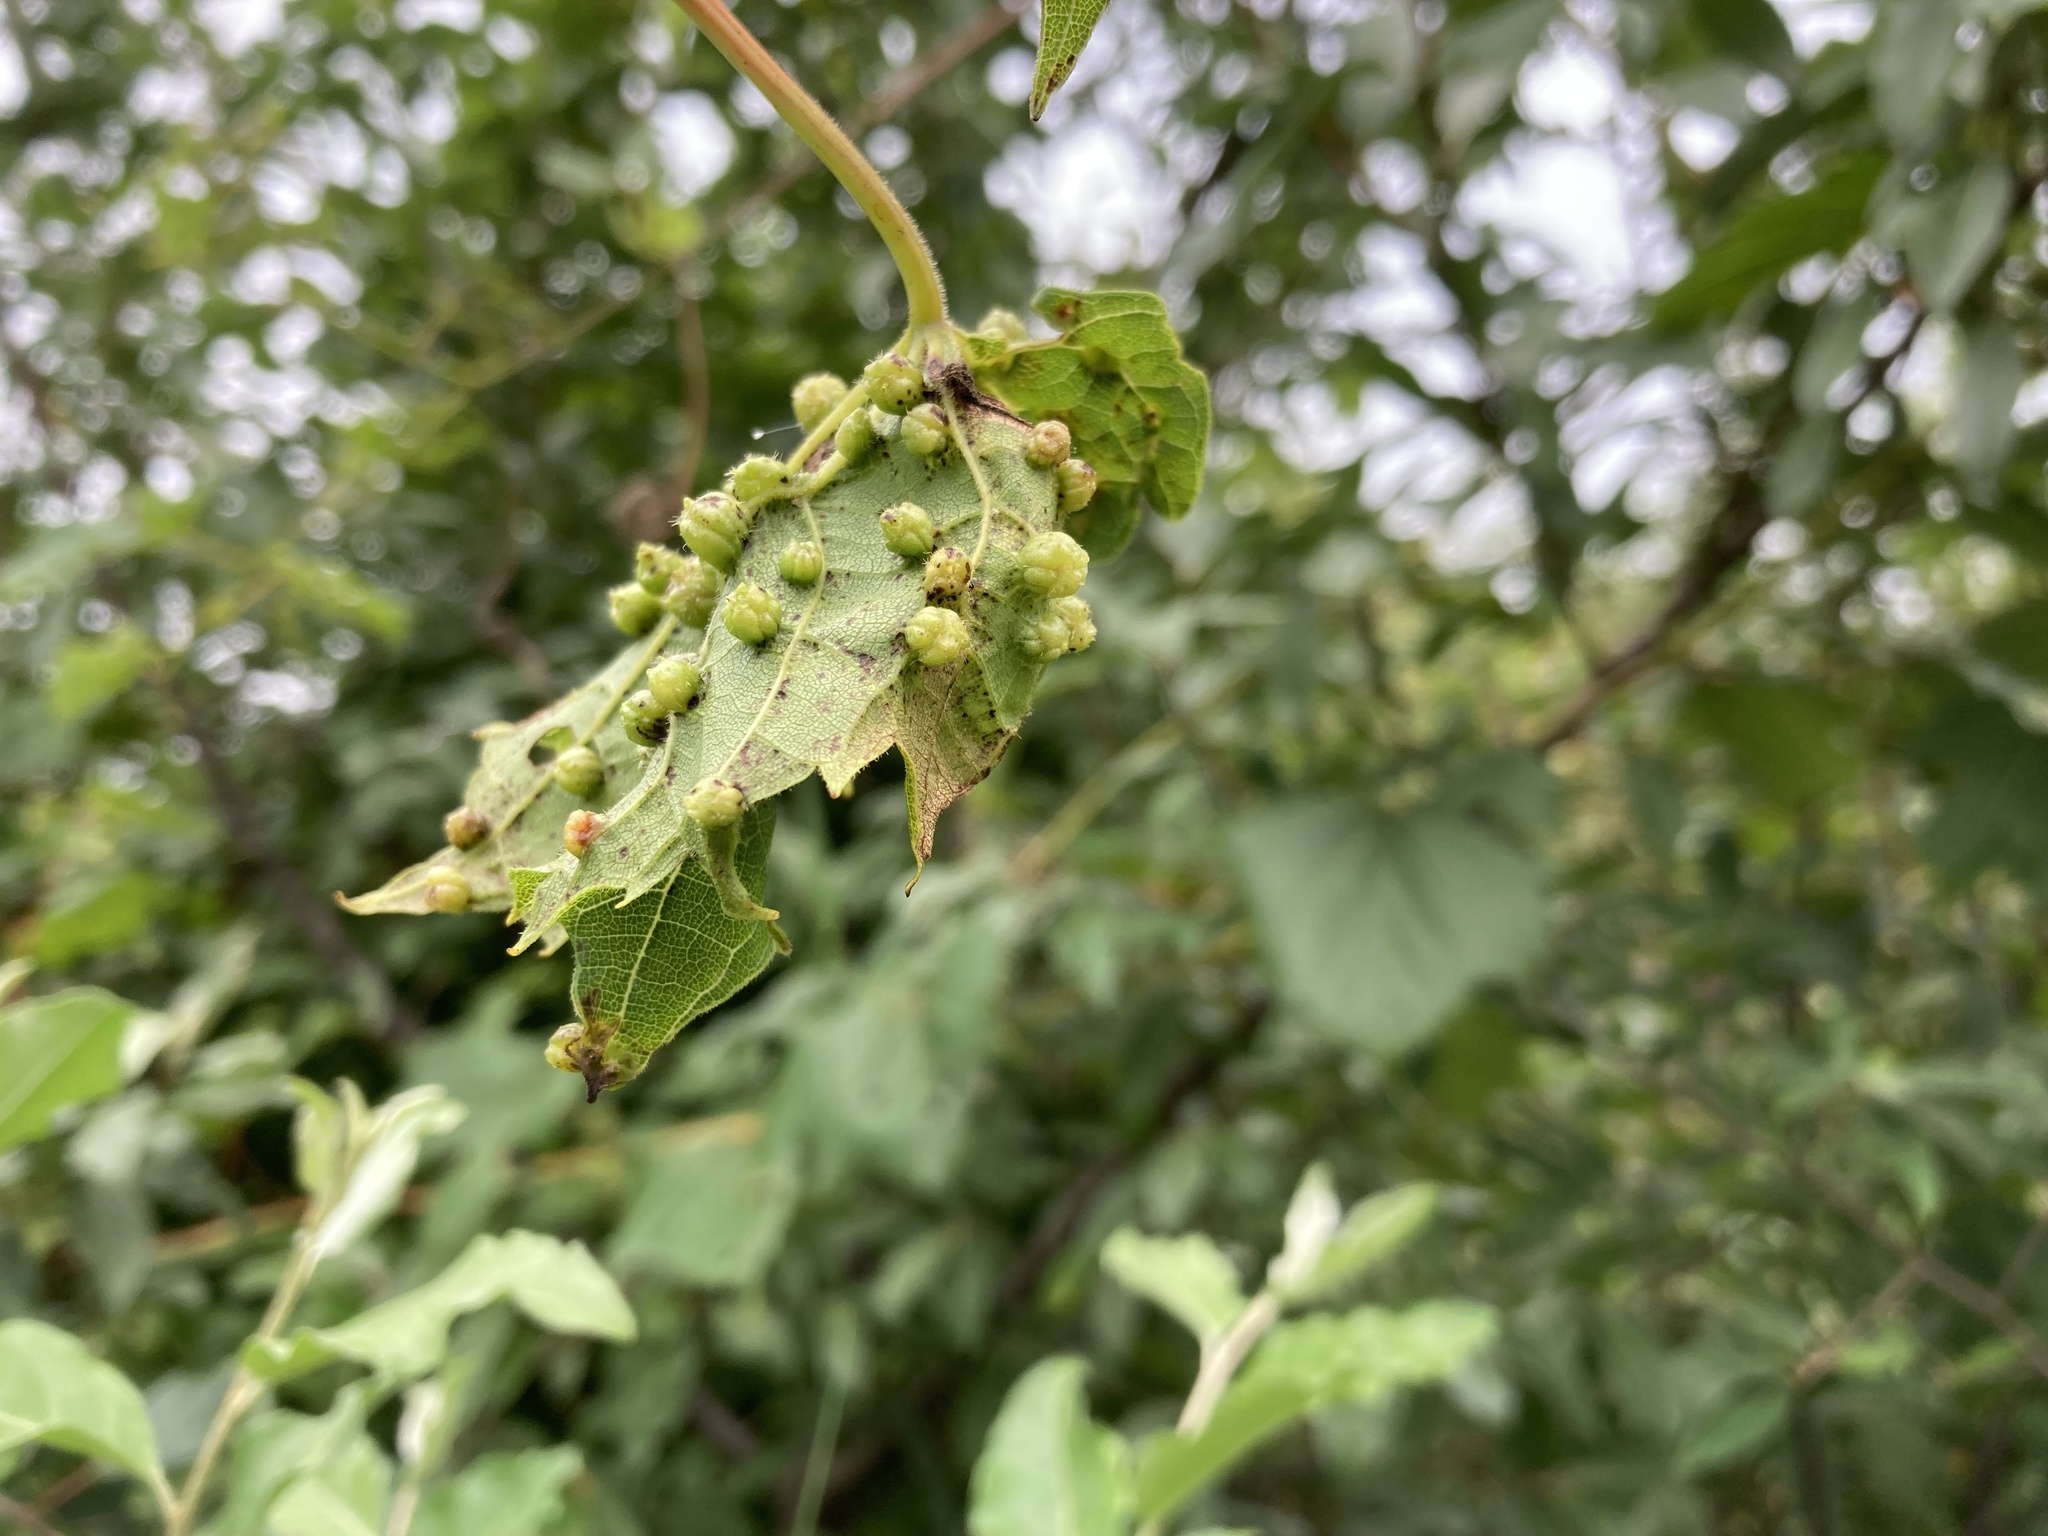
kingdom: Animalia
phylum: Arthropoda
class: Insecta
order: Hemiptera
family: Phylloxeridae
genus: Daktulosphaira
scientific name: Daktulosphaira vitifoliae
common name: Grape phylloxera
